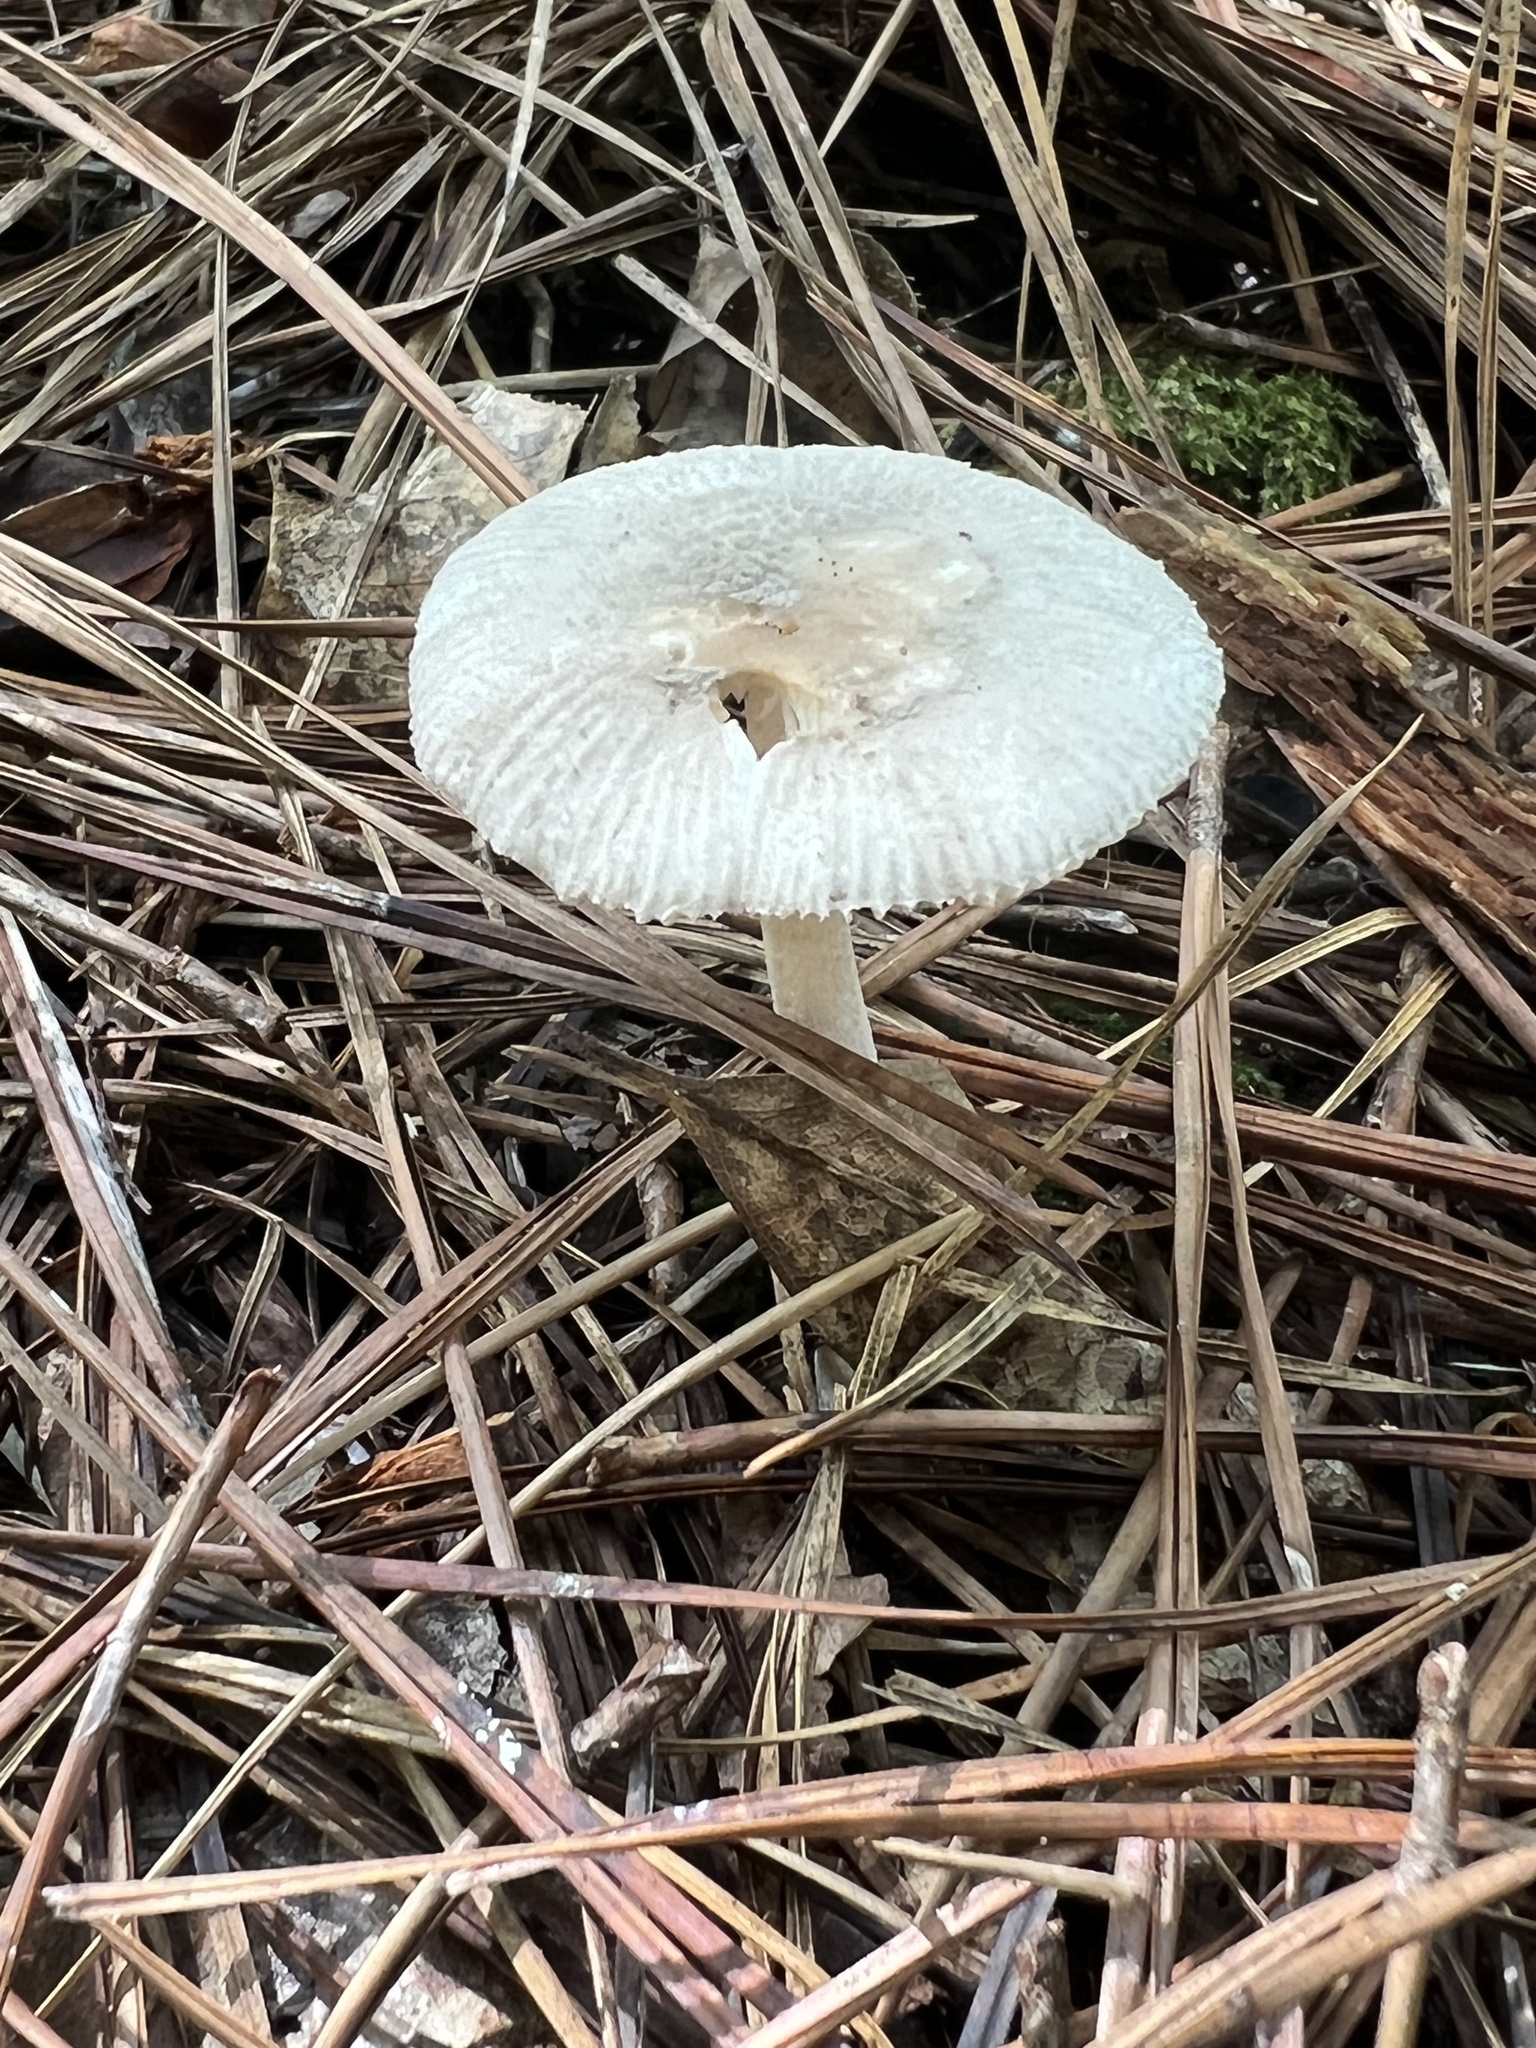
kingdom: Fungi
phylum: Basidiomycota
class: Agaricomycetes
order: Agaricales
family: Amanitaceae
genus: Amanita
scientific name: Amanita vaginata
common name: Grisette
